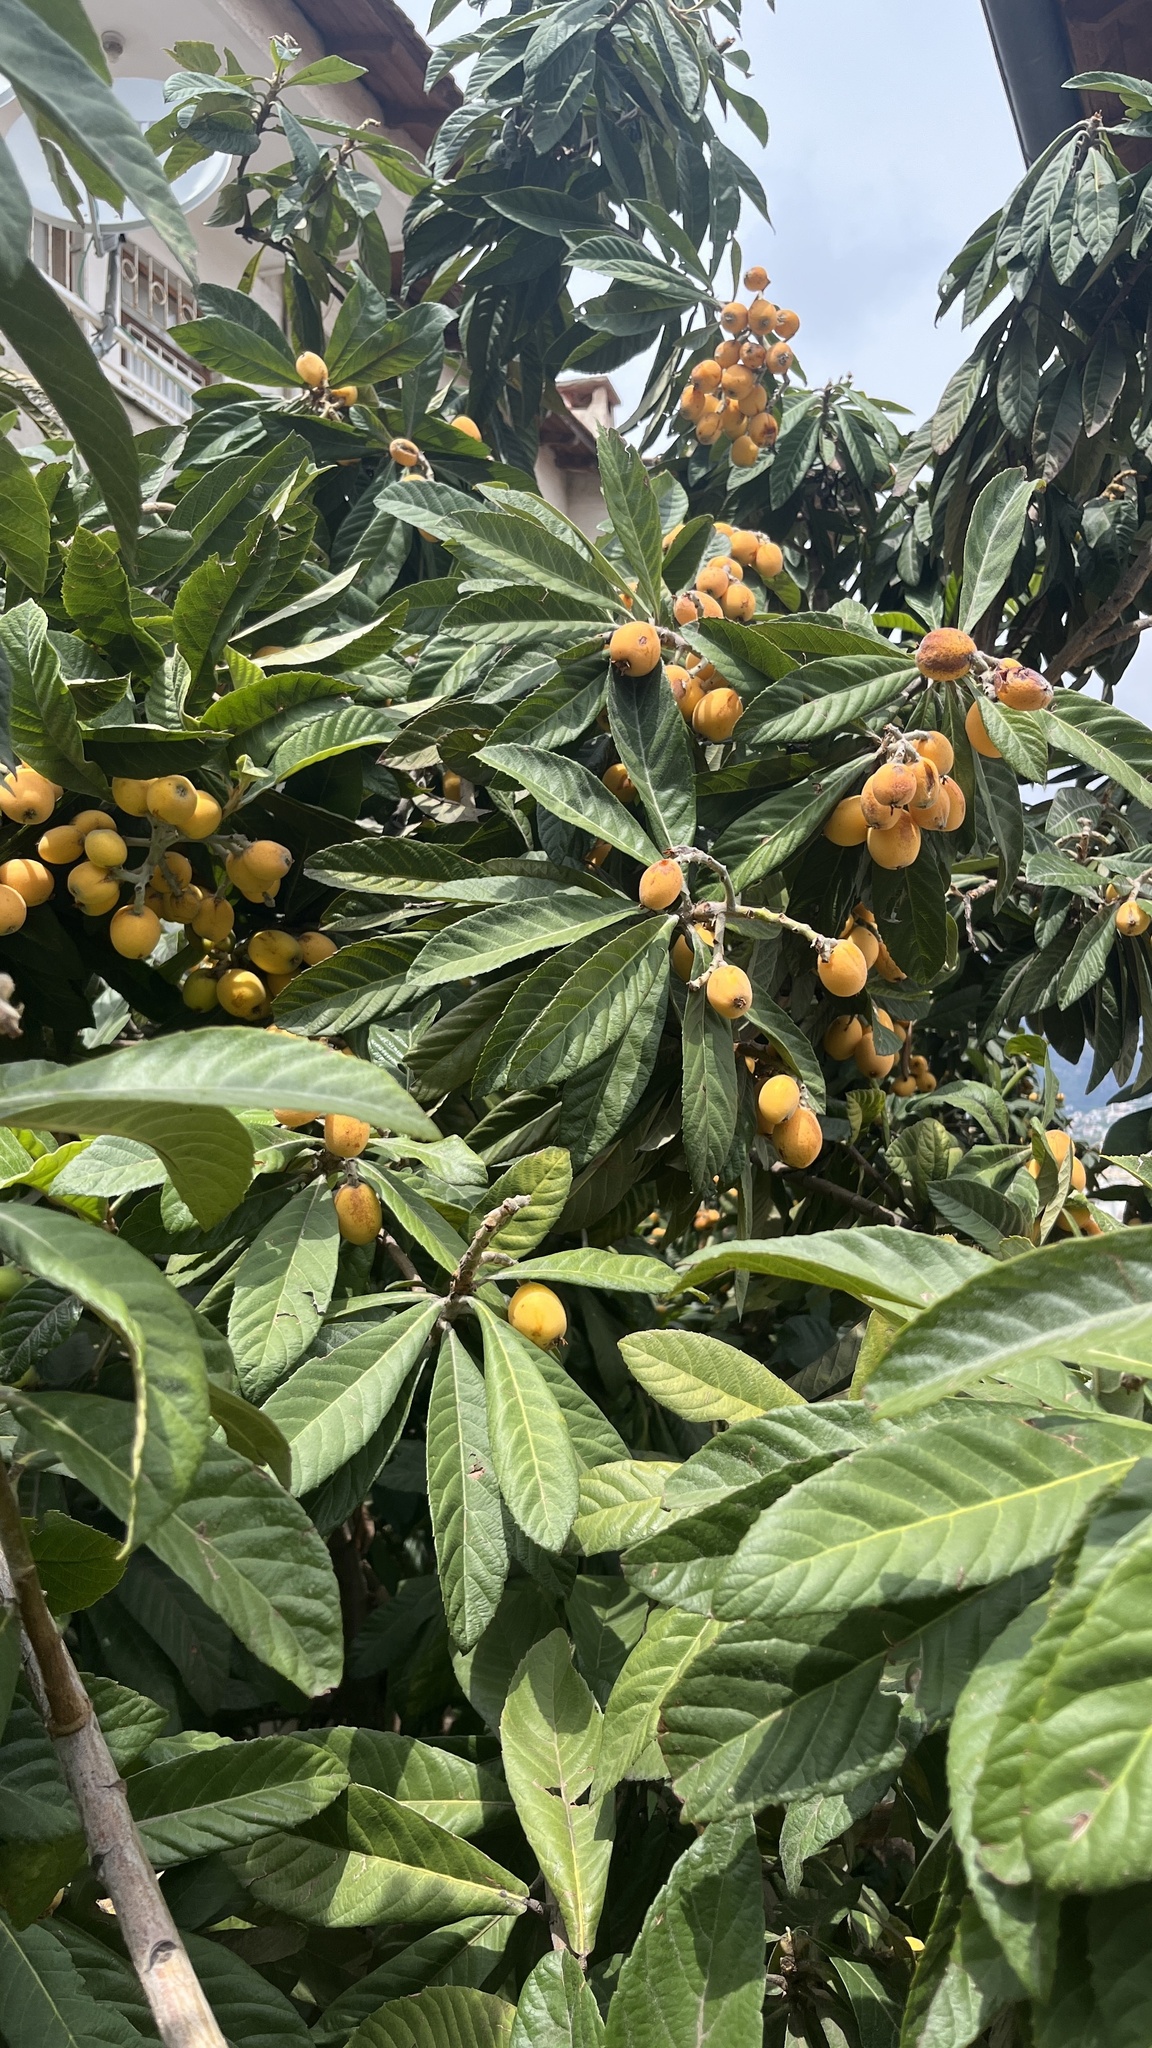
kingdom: Plantae
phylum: Tracheophyta
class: Magnoliopsida
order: Rosales
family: Rosaceae
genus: Rhaphiolepis
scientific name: Rhaphiolepis bibas
